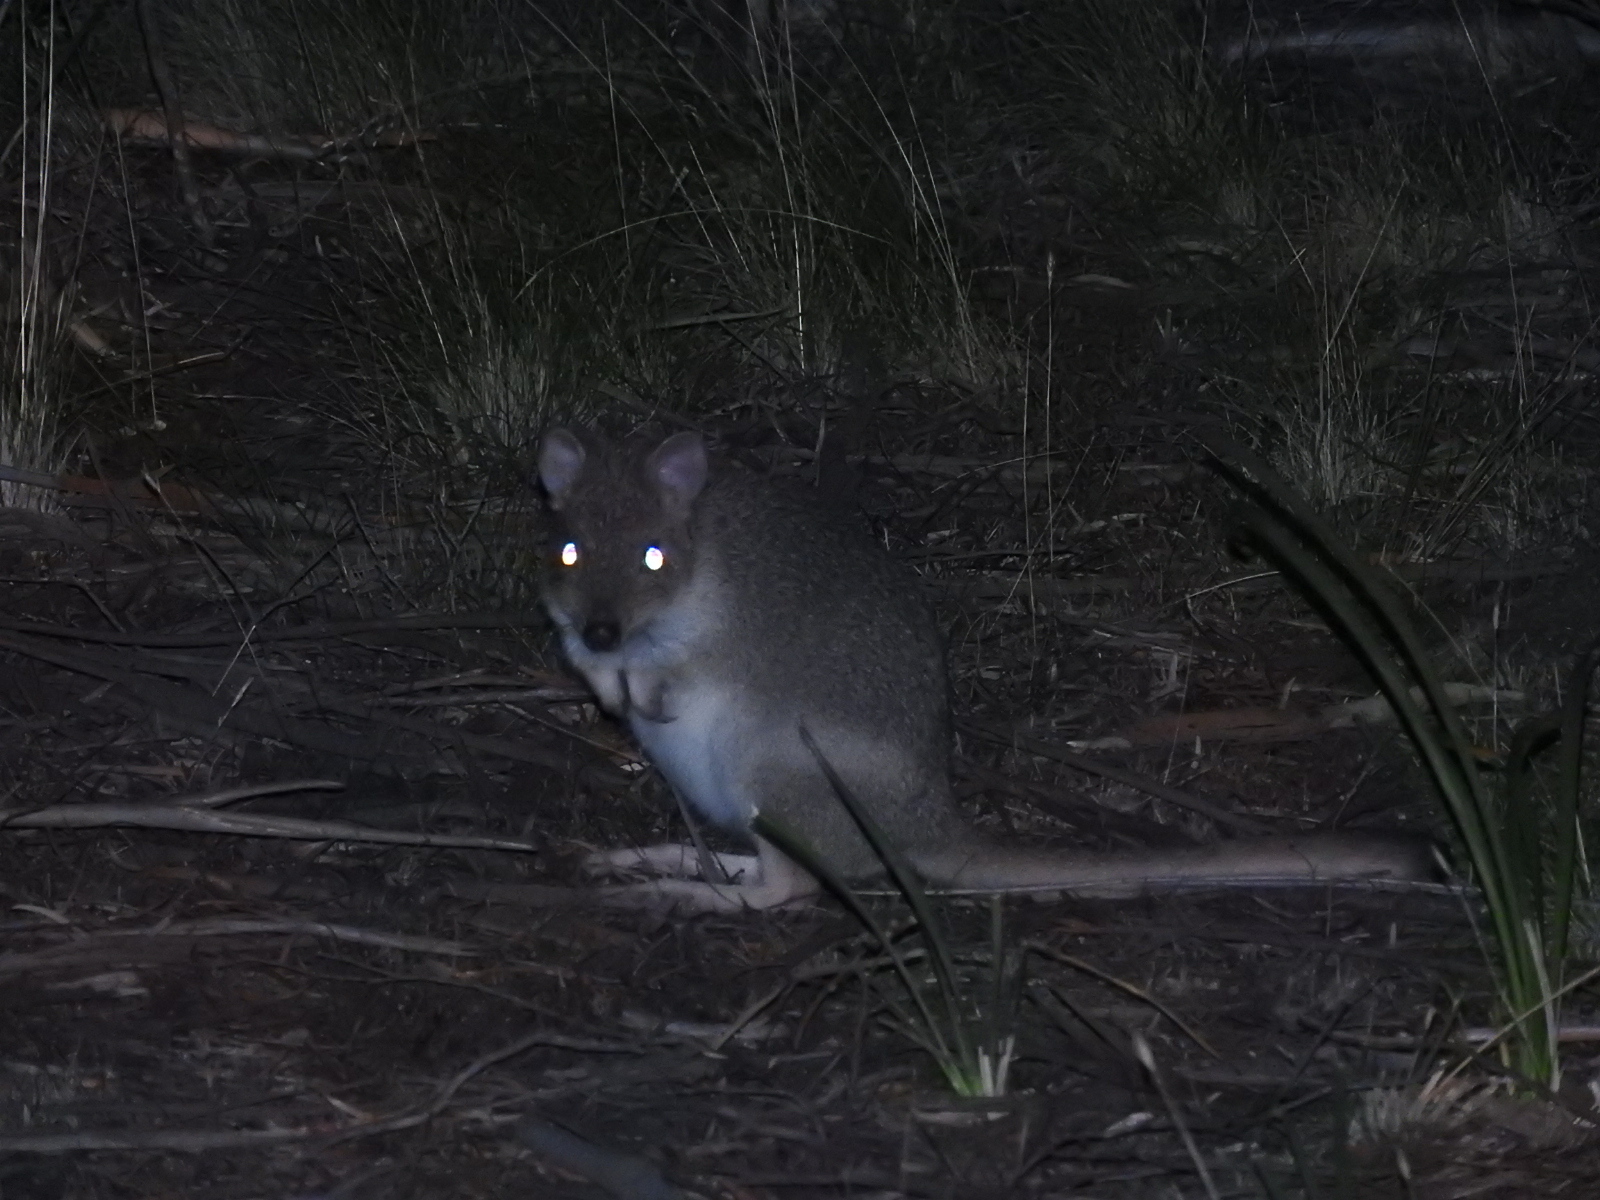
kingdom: Animalia
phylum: Chordata
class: Mammalia
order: Diprotodontia
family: Potoroidae
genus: Bettongia
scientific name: Bettongia gaimardi
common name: Eastern bettong
